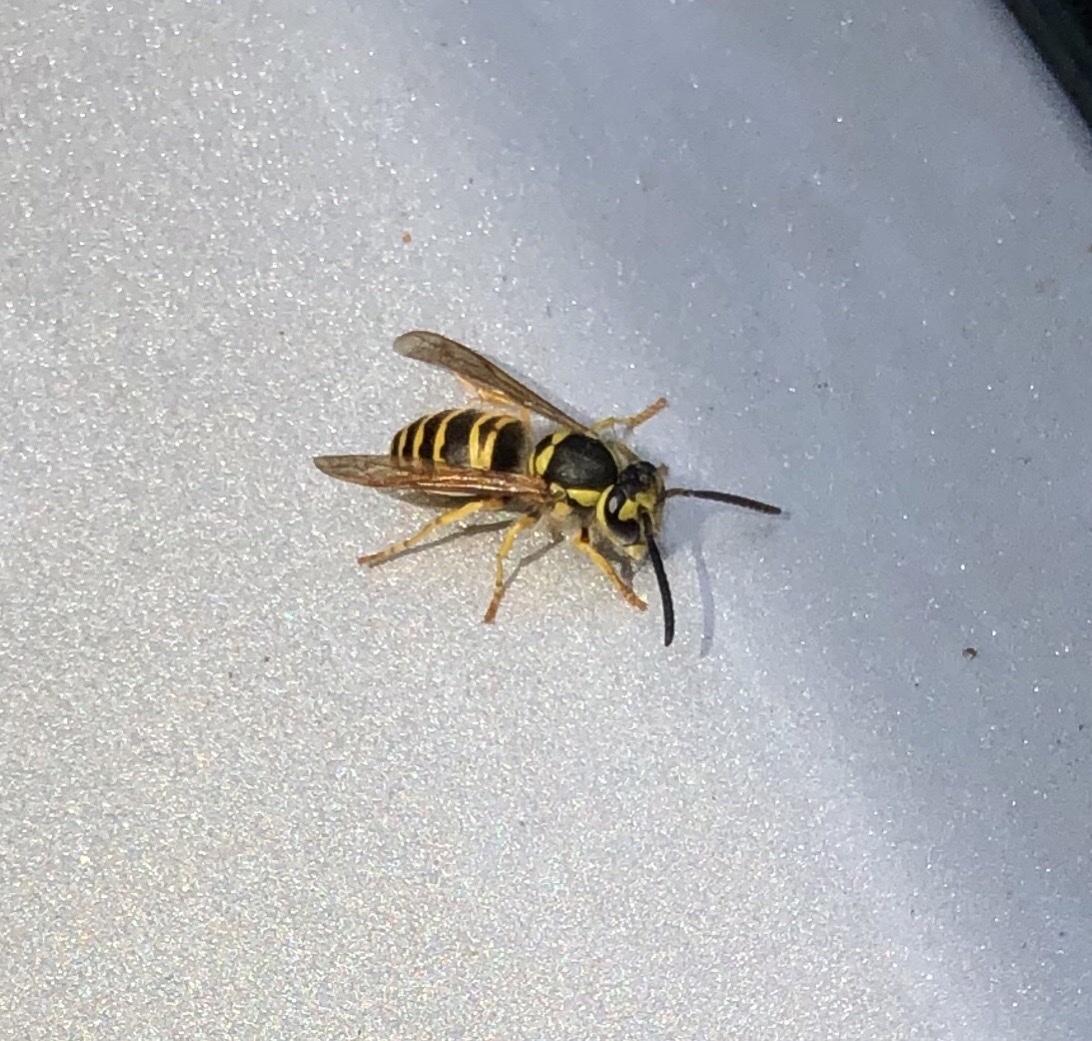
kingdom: Animalia
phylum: Arthropoda
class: Insecta
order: Hymenoptera
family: Vespidae
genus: Vespula
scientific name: Vespula maculifrons
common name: Eastern yellowjacket
